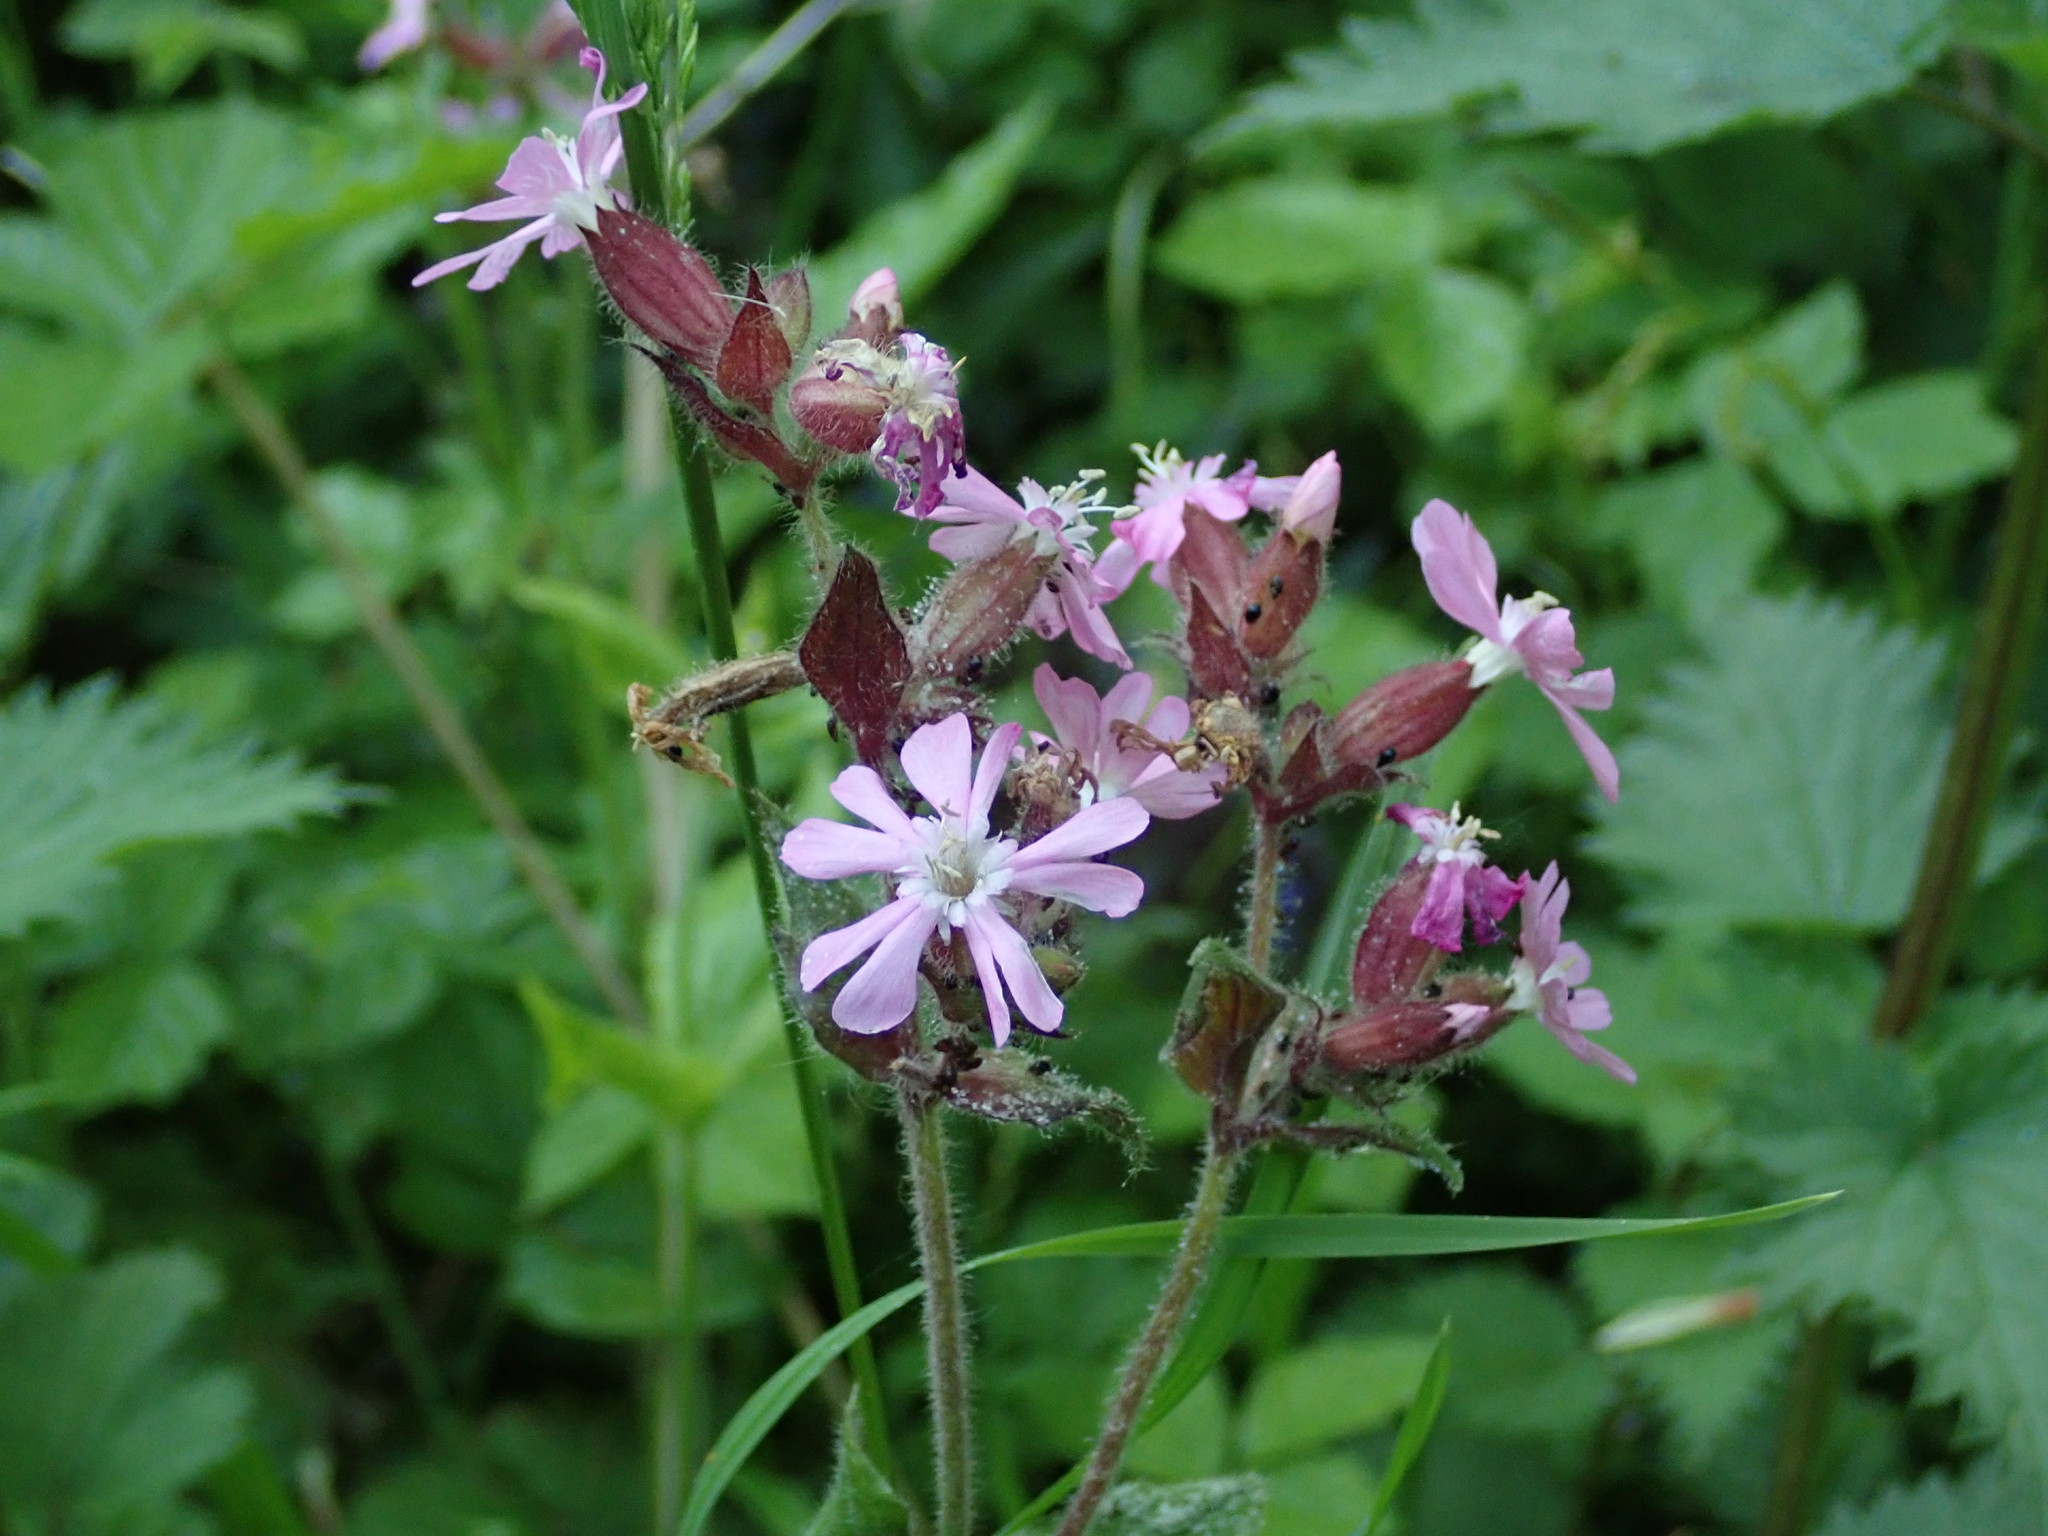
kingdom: Plantae
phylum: Tracheophyta
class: Magnoliopsida
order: Caryophyllales
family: Caryophyllaceae
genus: Silene
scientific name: Silene dioica
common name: Red campion
